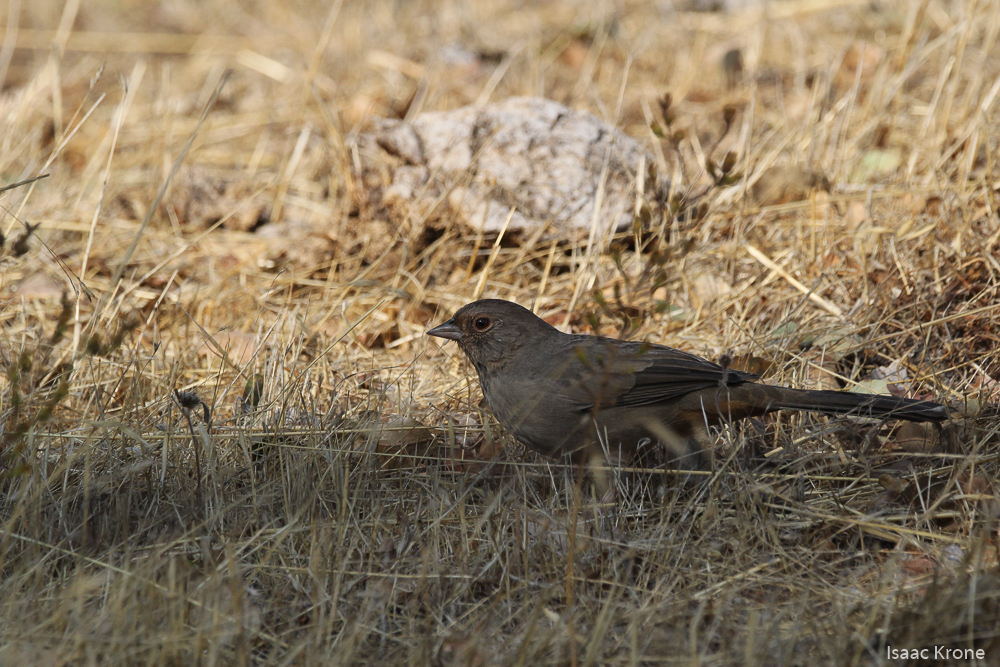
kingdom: Animalia
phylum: Chordata
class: Aves
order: Passeriformes
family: Passerellidae
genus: Melozone
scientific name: Melozone crissalis
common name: California towhee
